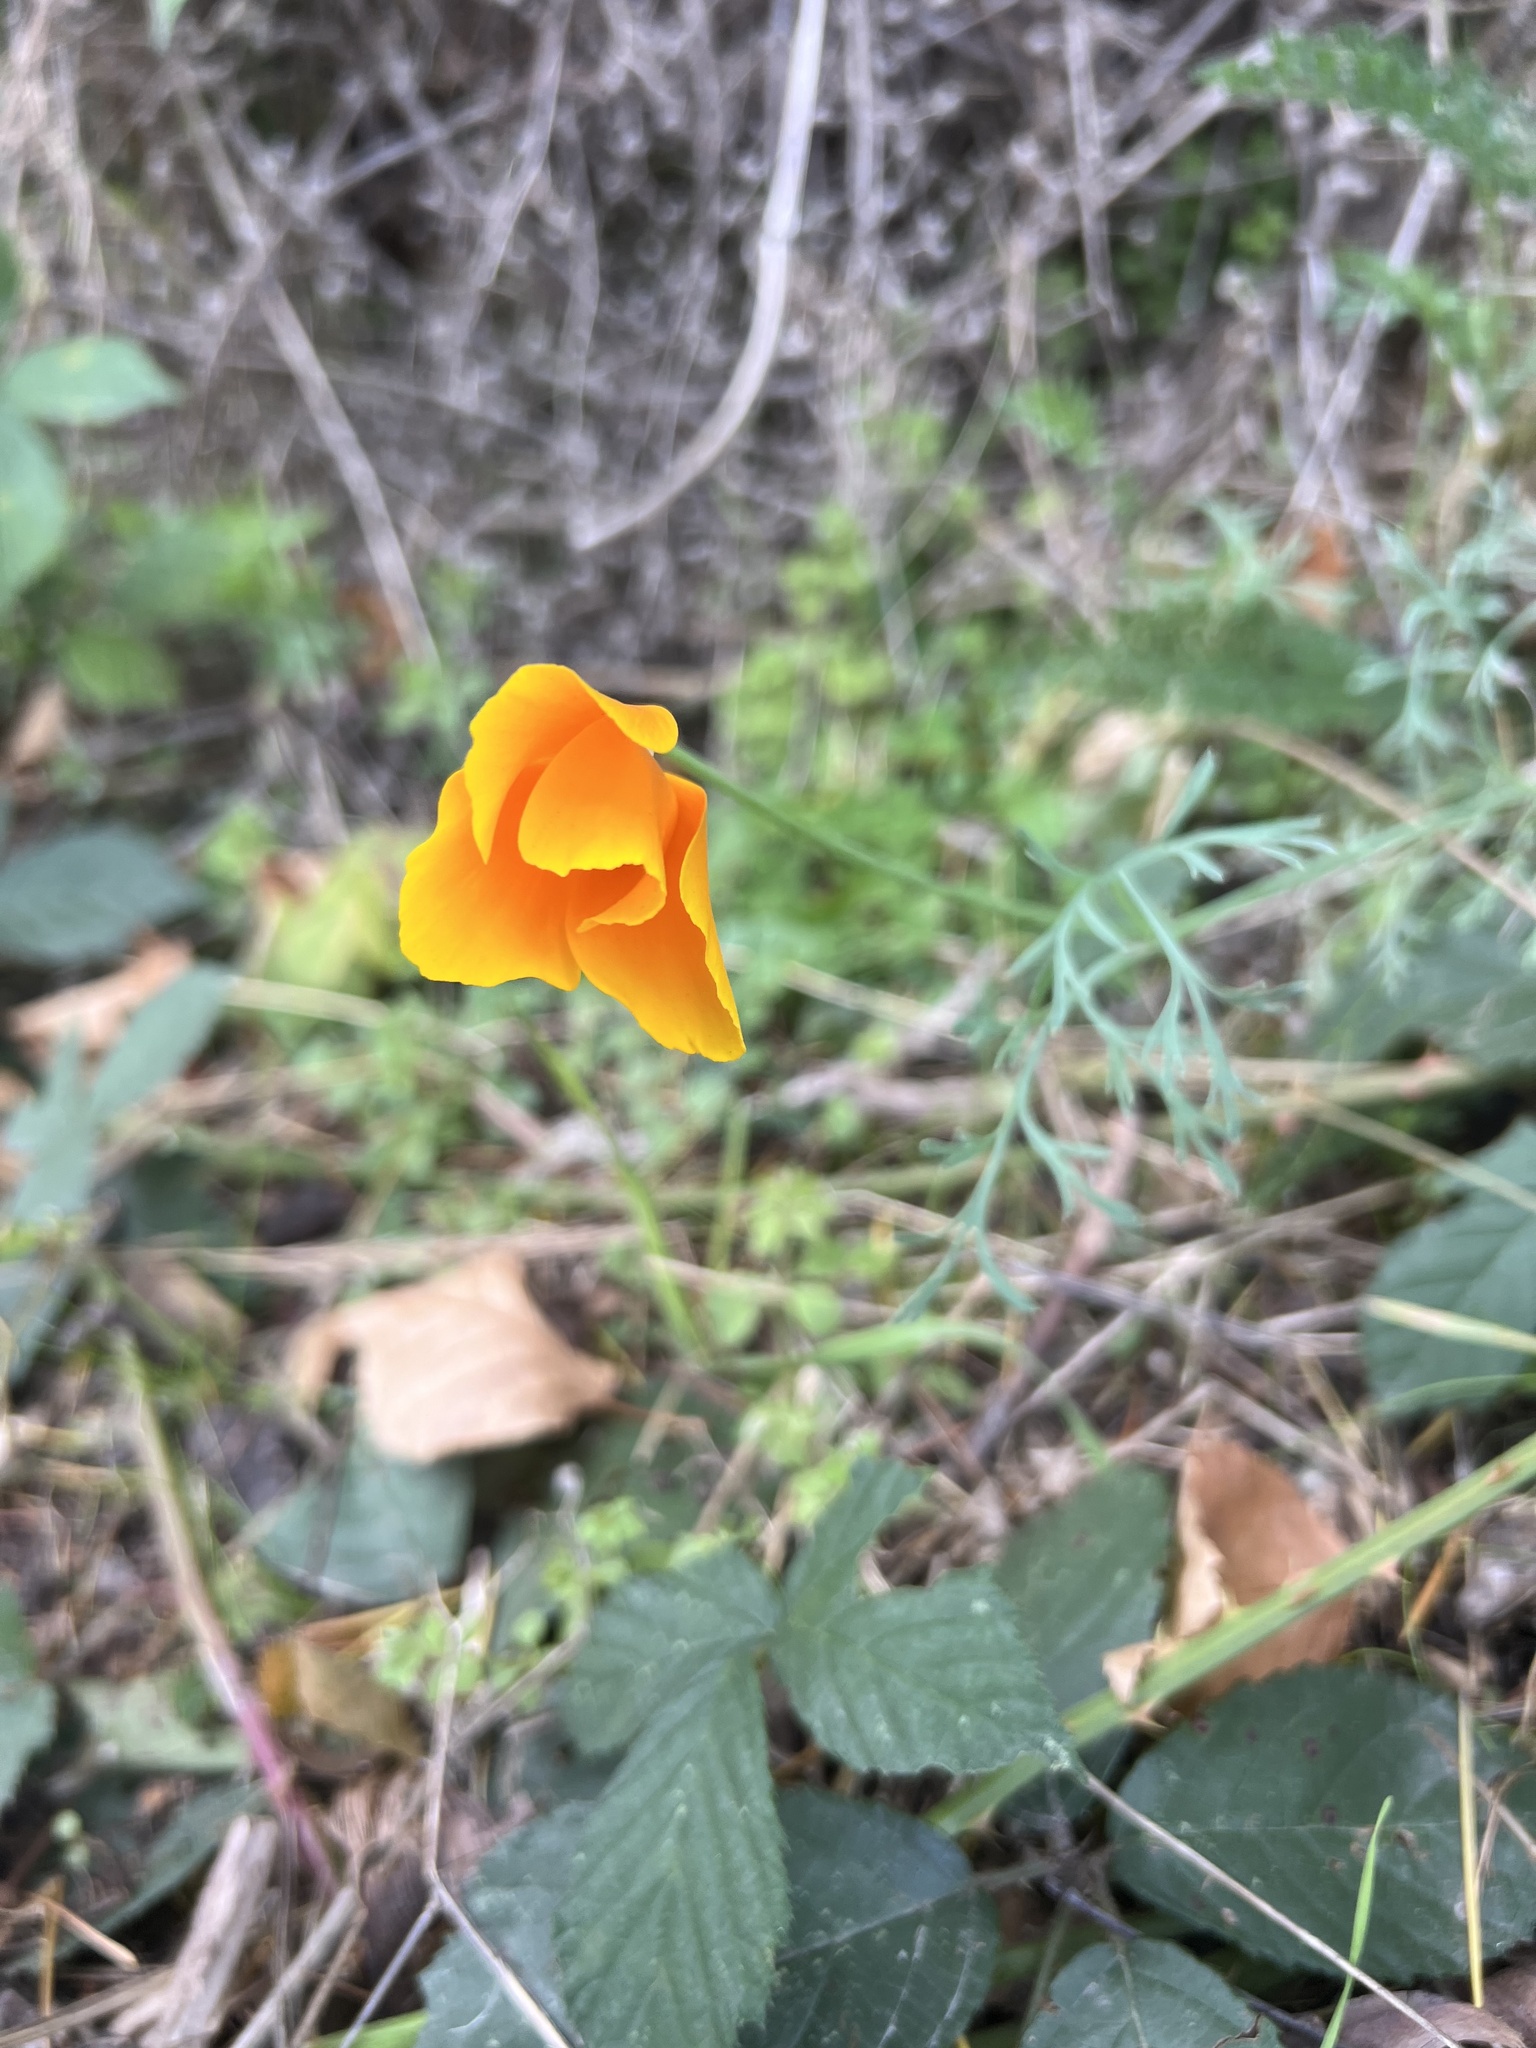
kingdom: Plantae
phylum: Tracheophyta
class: Magnoliopsida
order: Ranunculales
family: Papaveraceae
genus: Eschscholzia
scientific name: Eschscholzia californica
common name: California poppy
